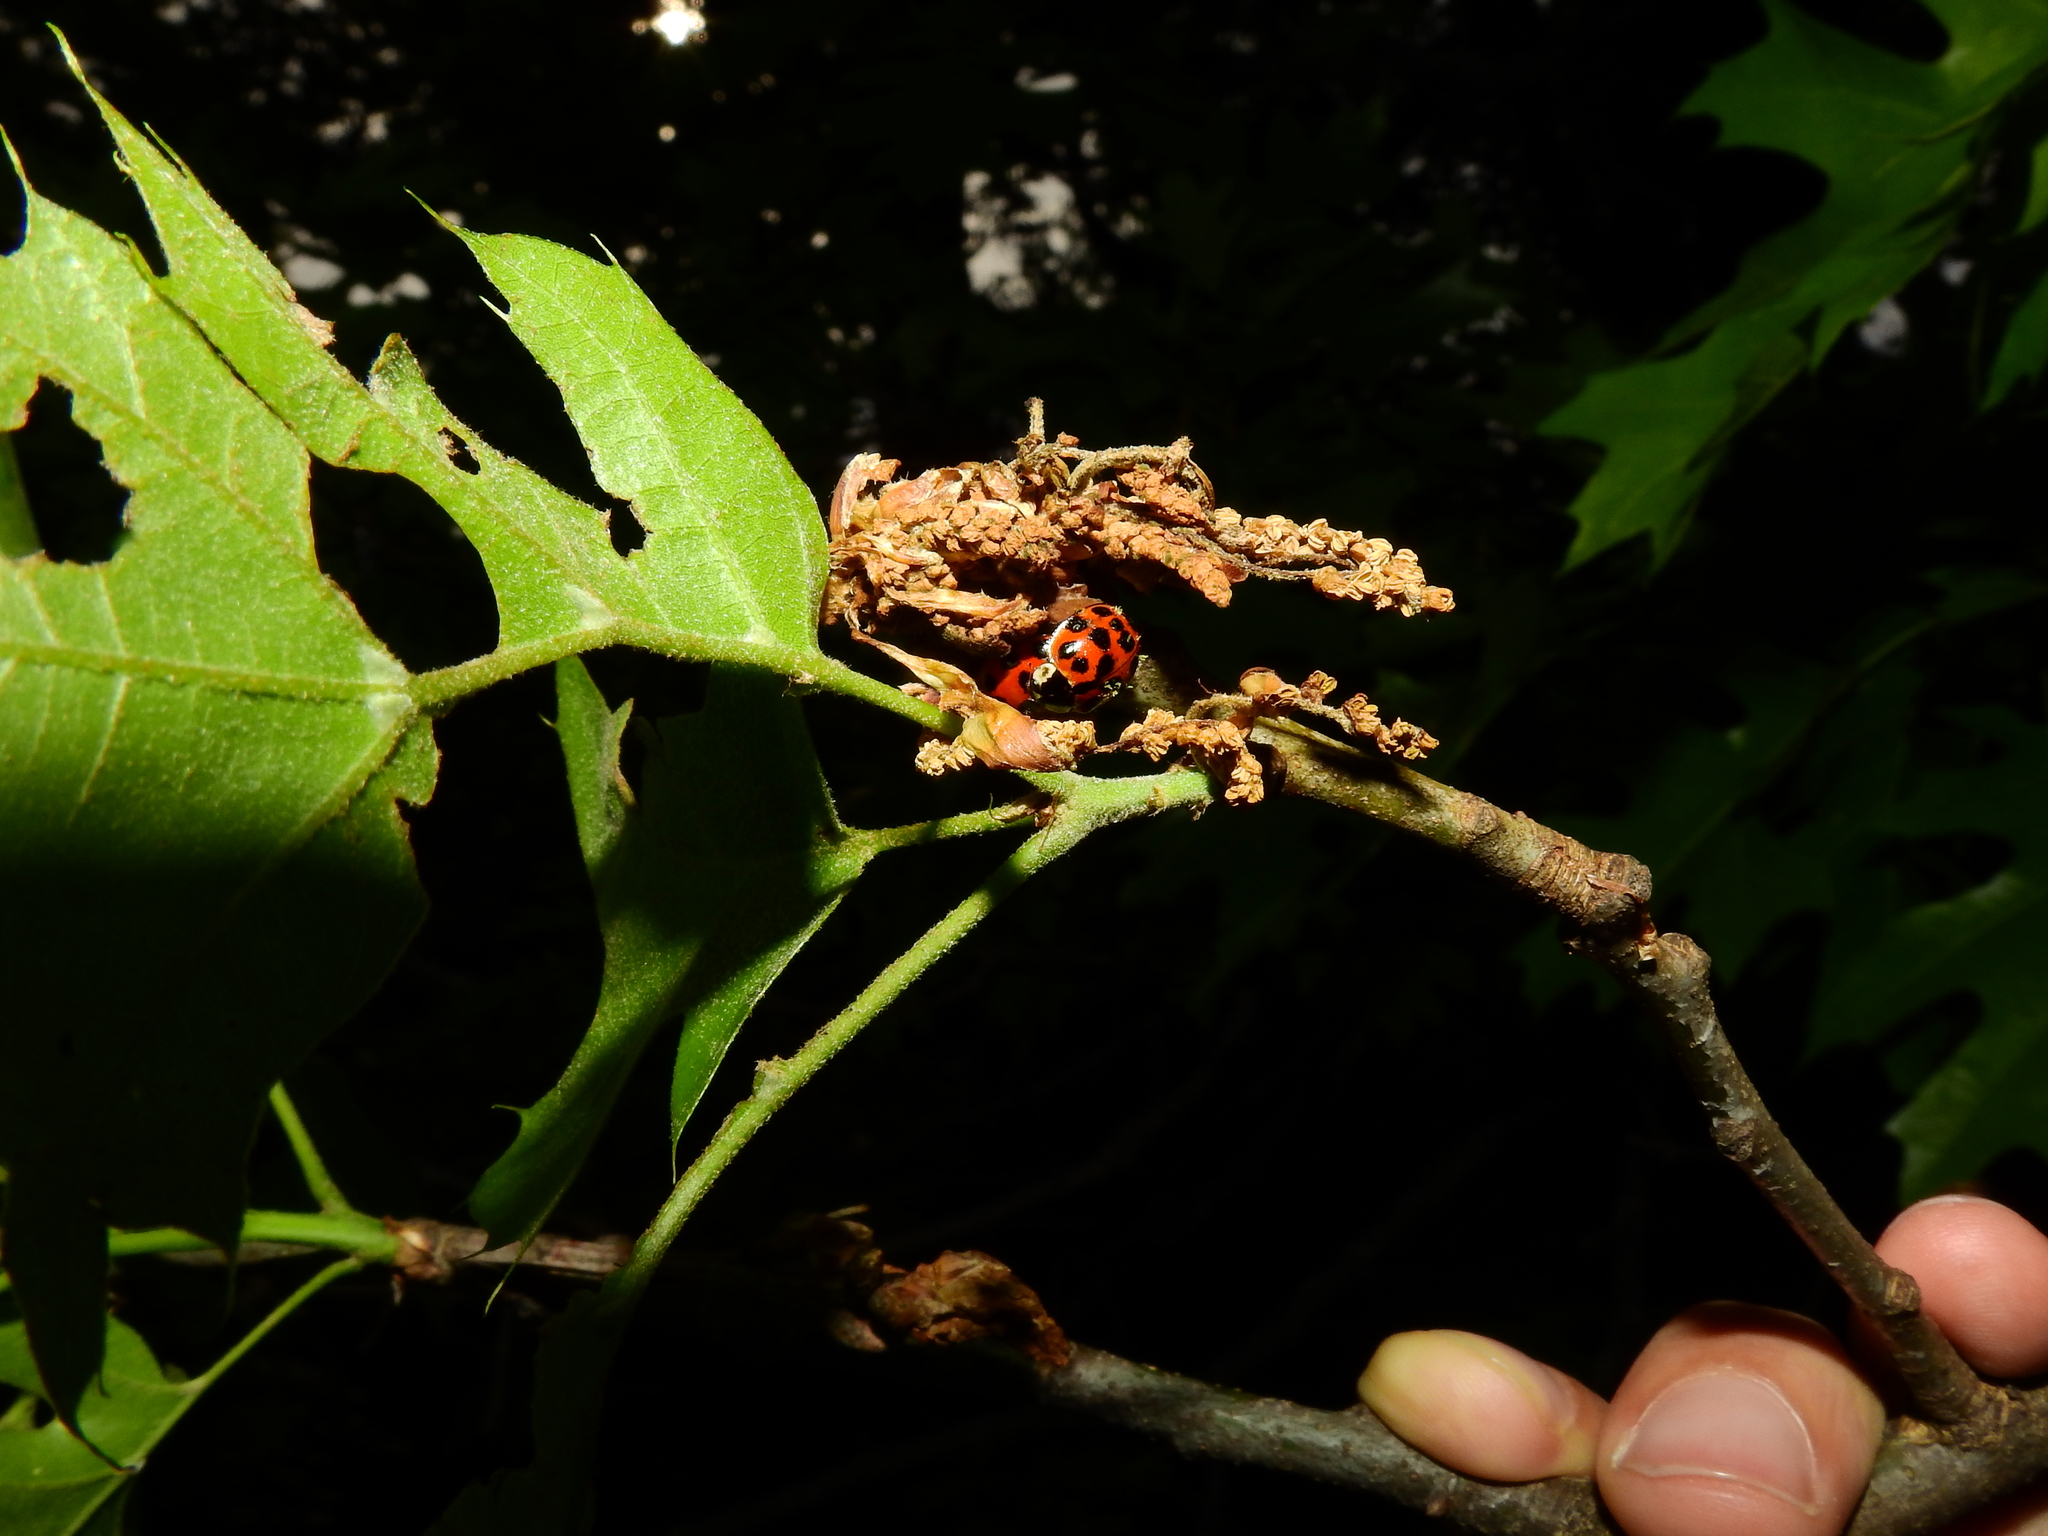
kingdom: Animalia
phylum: Arthropoda
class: Insecta
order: Coleoptera
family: Coccinellidae
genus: Harmonia
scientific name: Harmonia axyridis
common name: Harlequin ladybird
